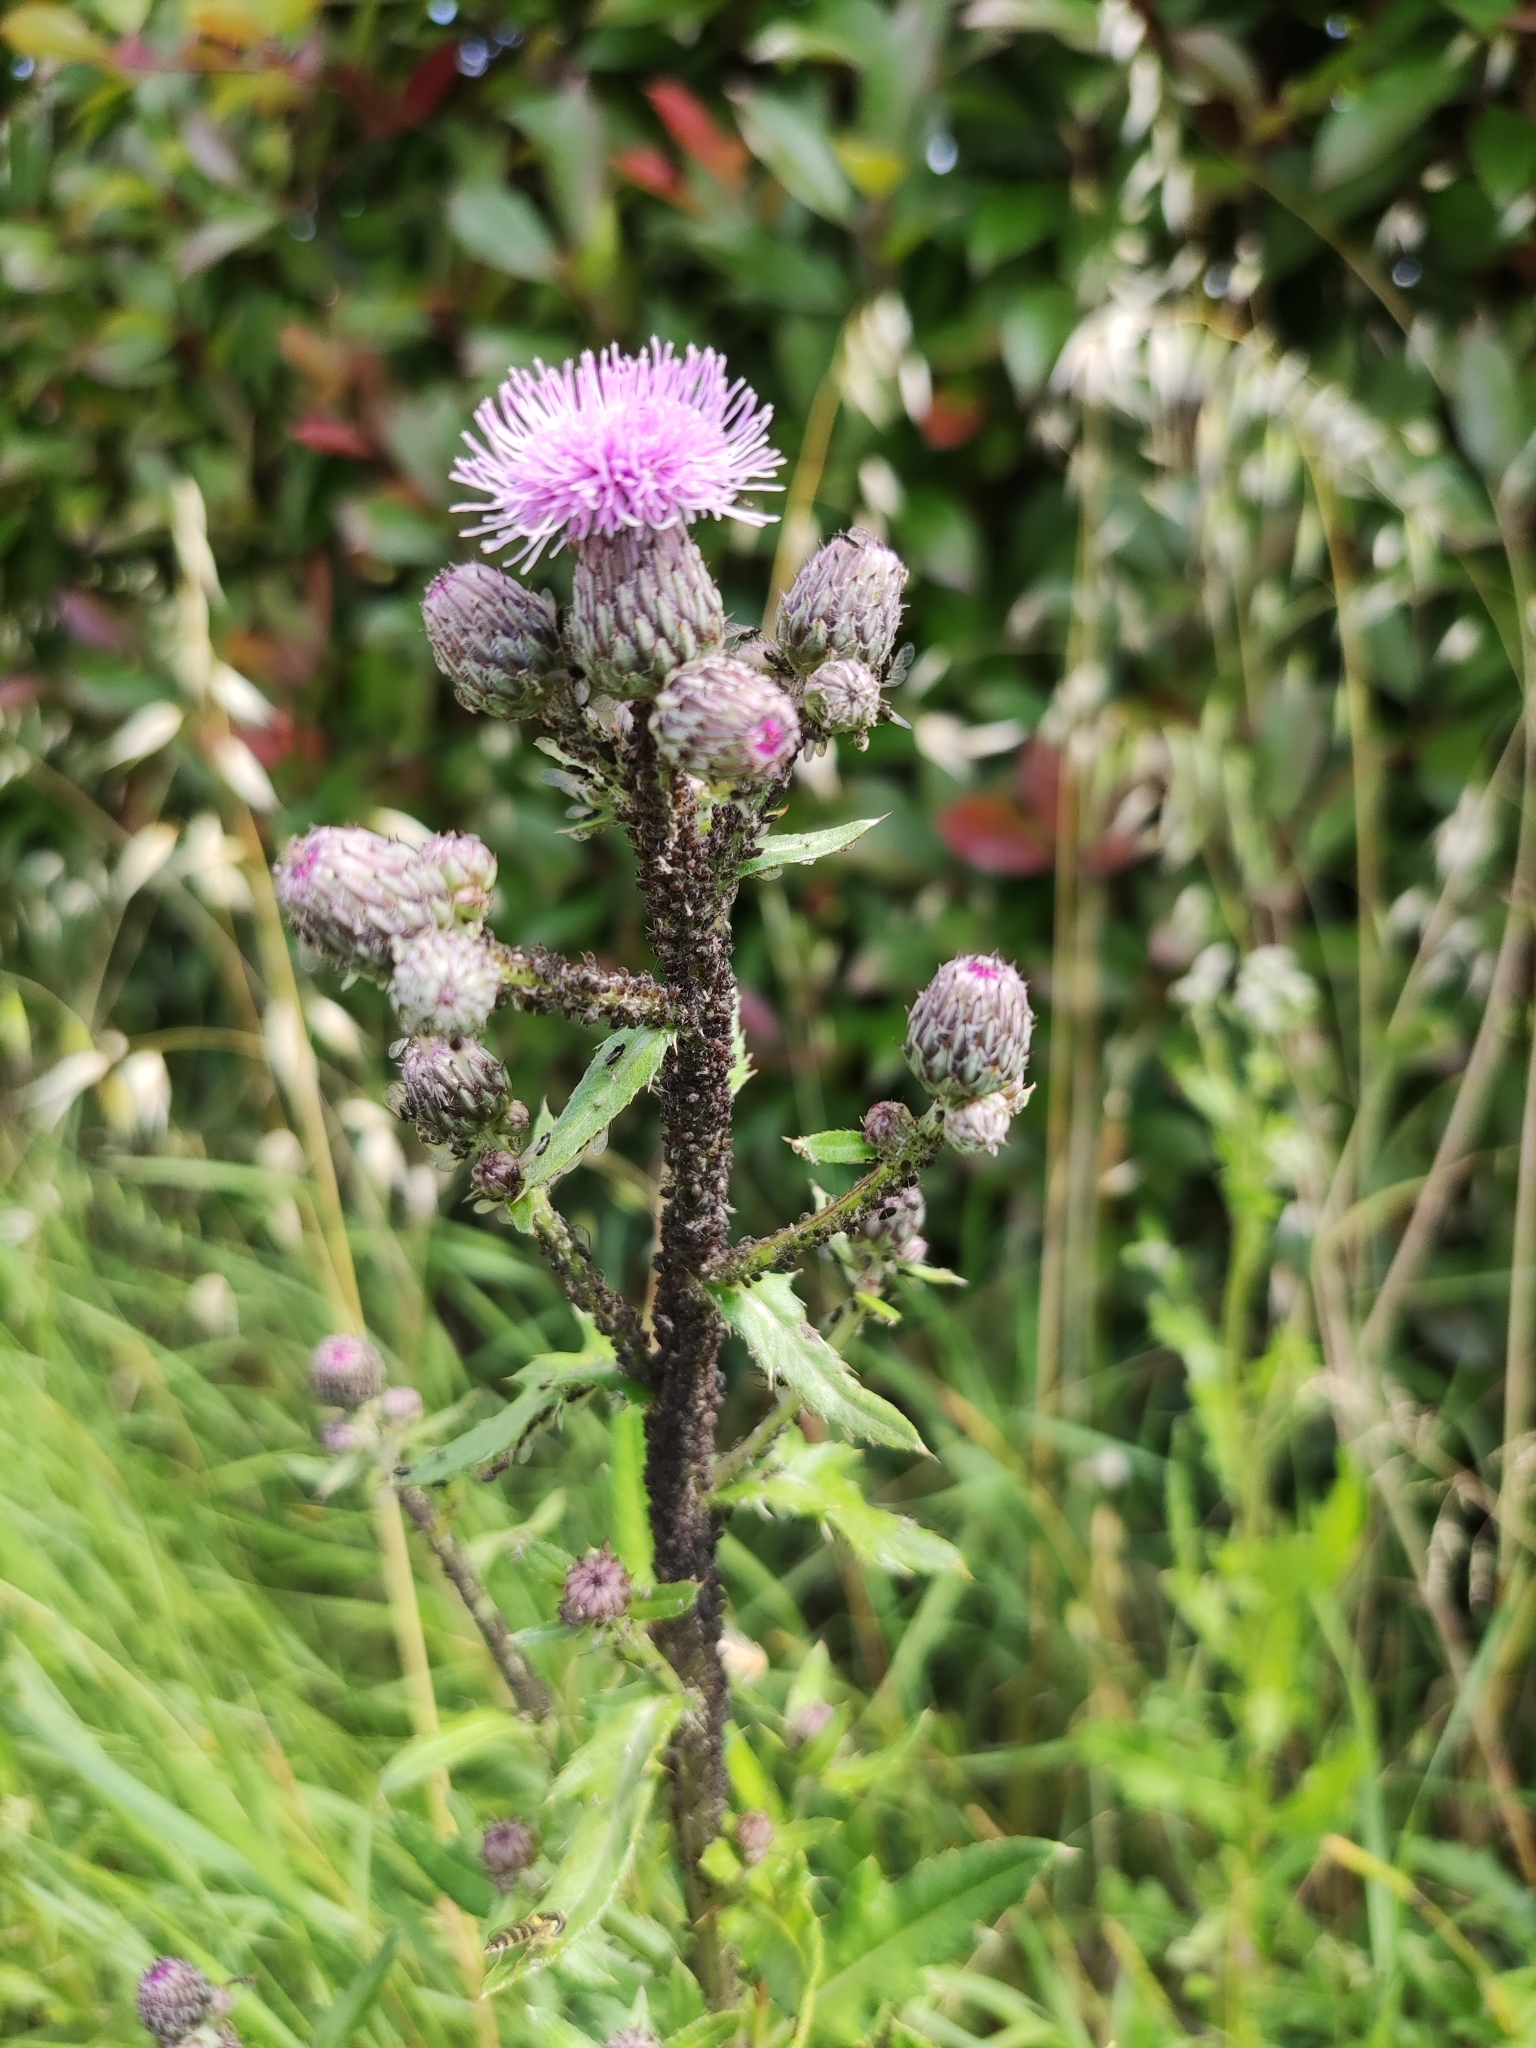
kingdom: Plantae
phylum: Tracheophyta
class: Magnoliopsida
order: Asterales
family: Asteraceae
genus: Cirsium
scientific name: Cirsium arvense
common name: Creeping thistle
